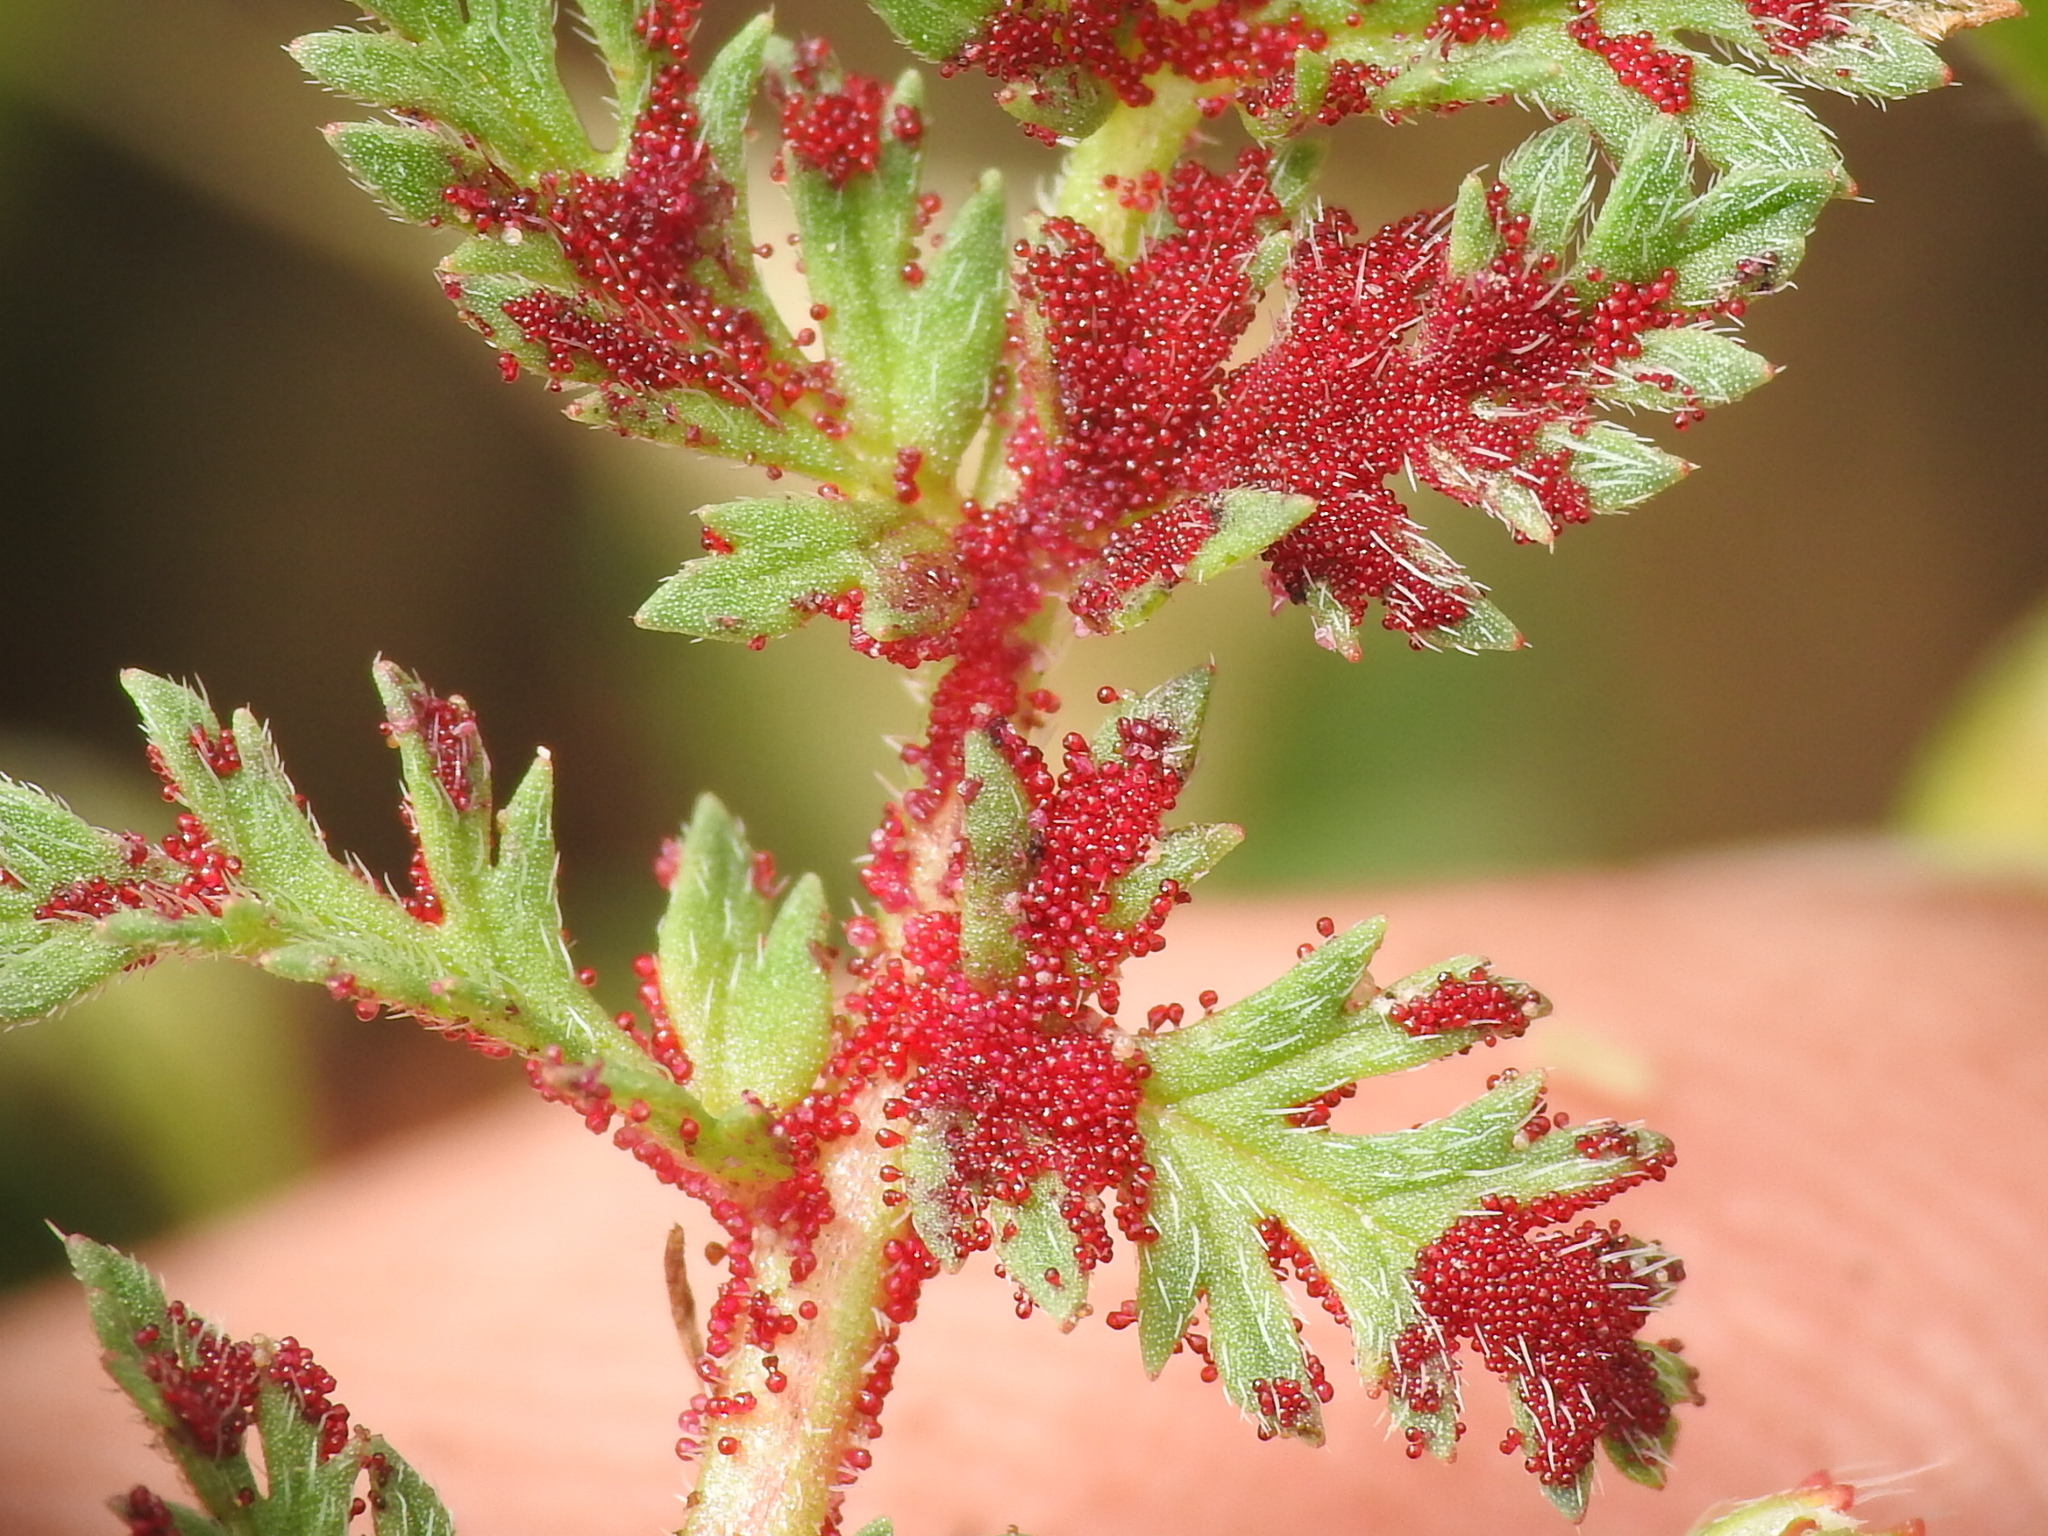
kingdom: Fungi
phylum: Chytridiomycota
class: Chytridiomycetes
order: Chytridiales
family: Synchytriaceae
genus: Synchytrium
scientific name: Synchytrium papillatum
